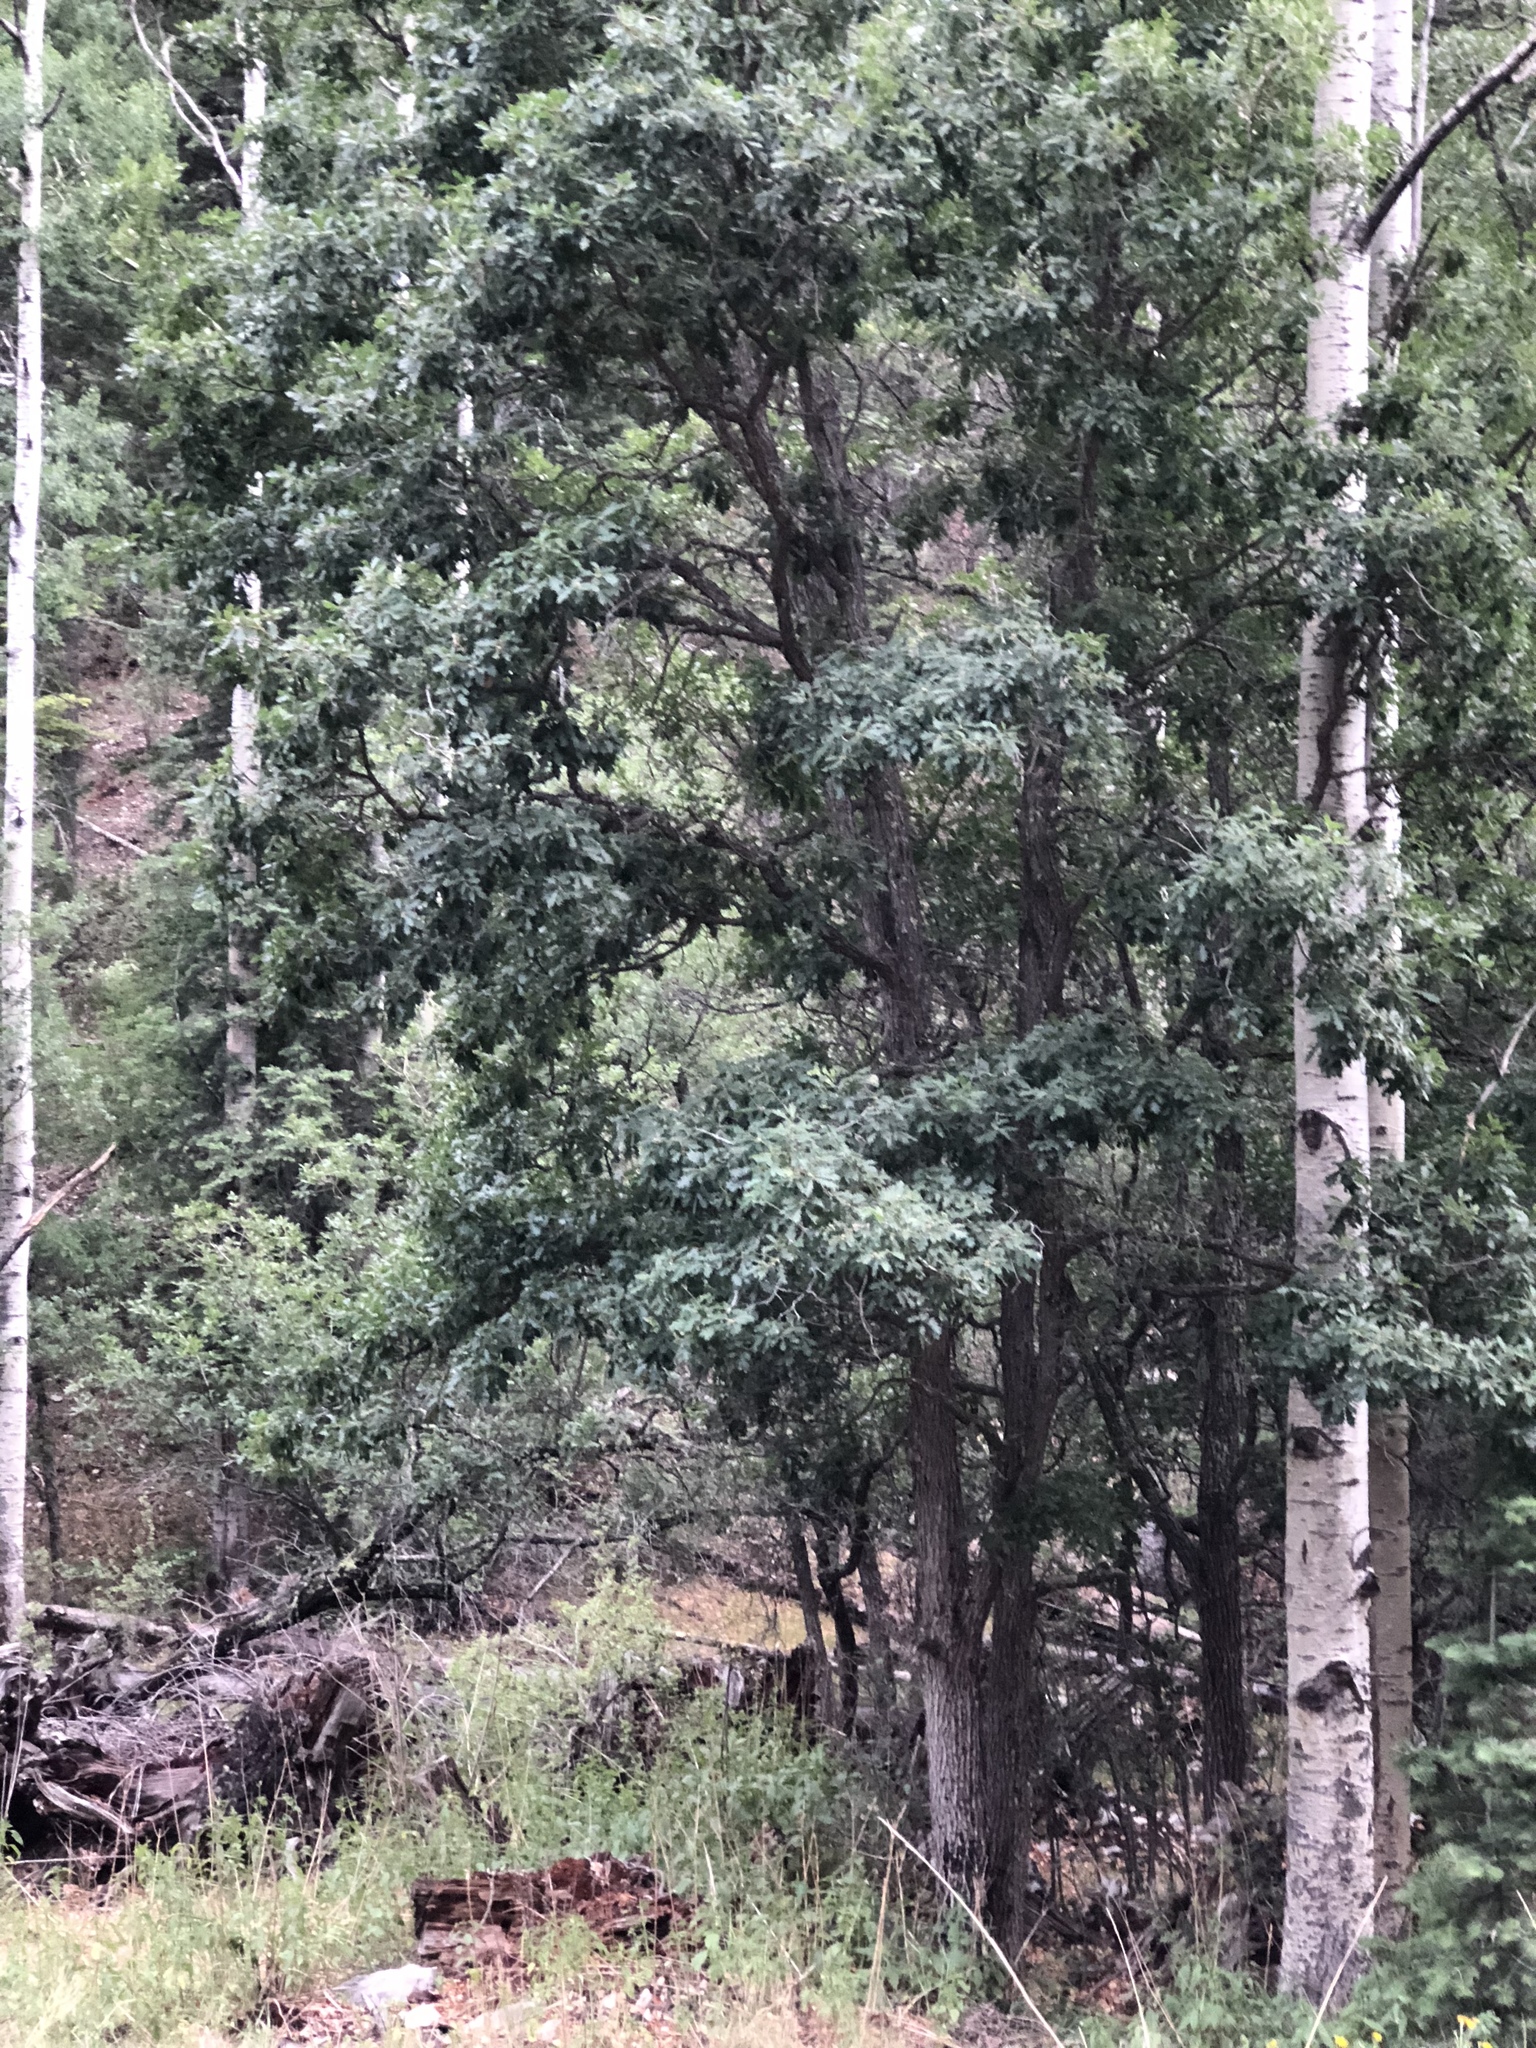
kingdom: Plantae
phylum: Tracheophyta
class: Magnoliopsida
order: Fagales
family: Fagaceae
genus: Quercus
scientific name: Quercus gambelii
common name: Gambel oak
